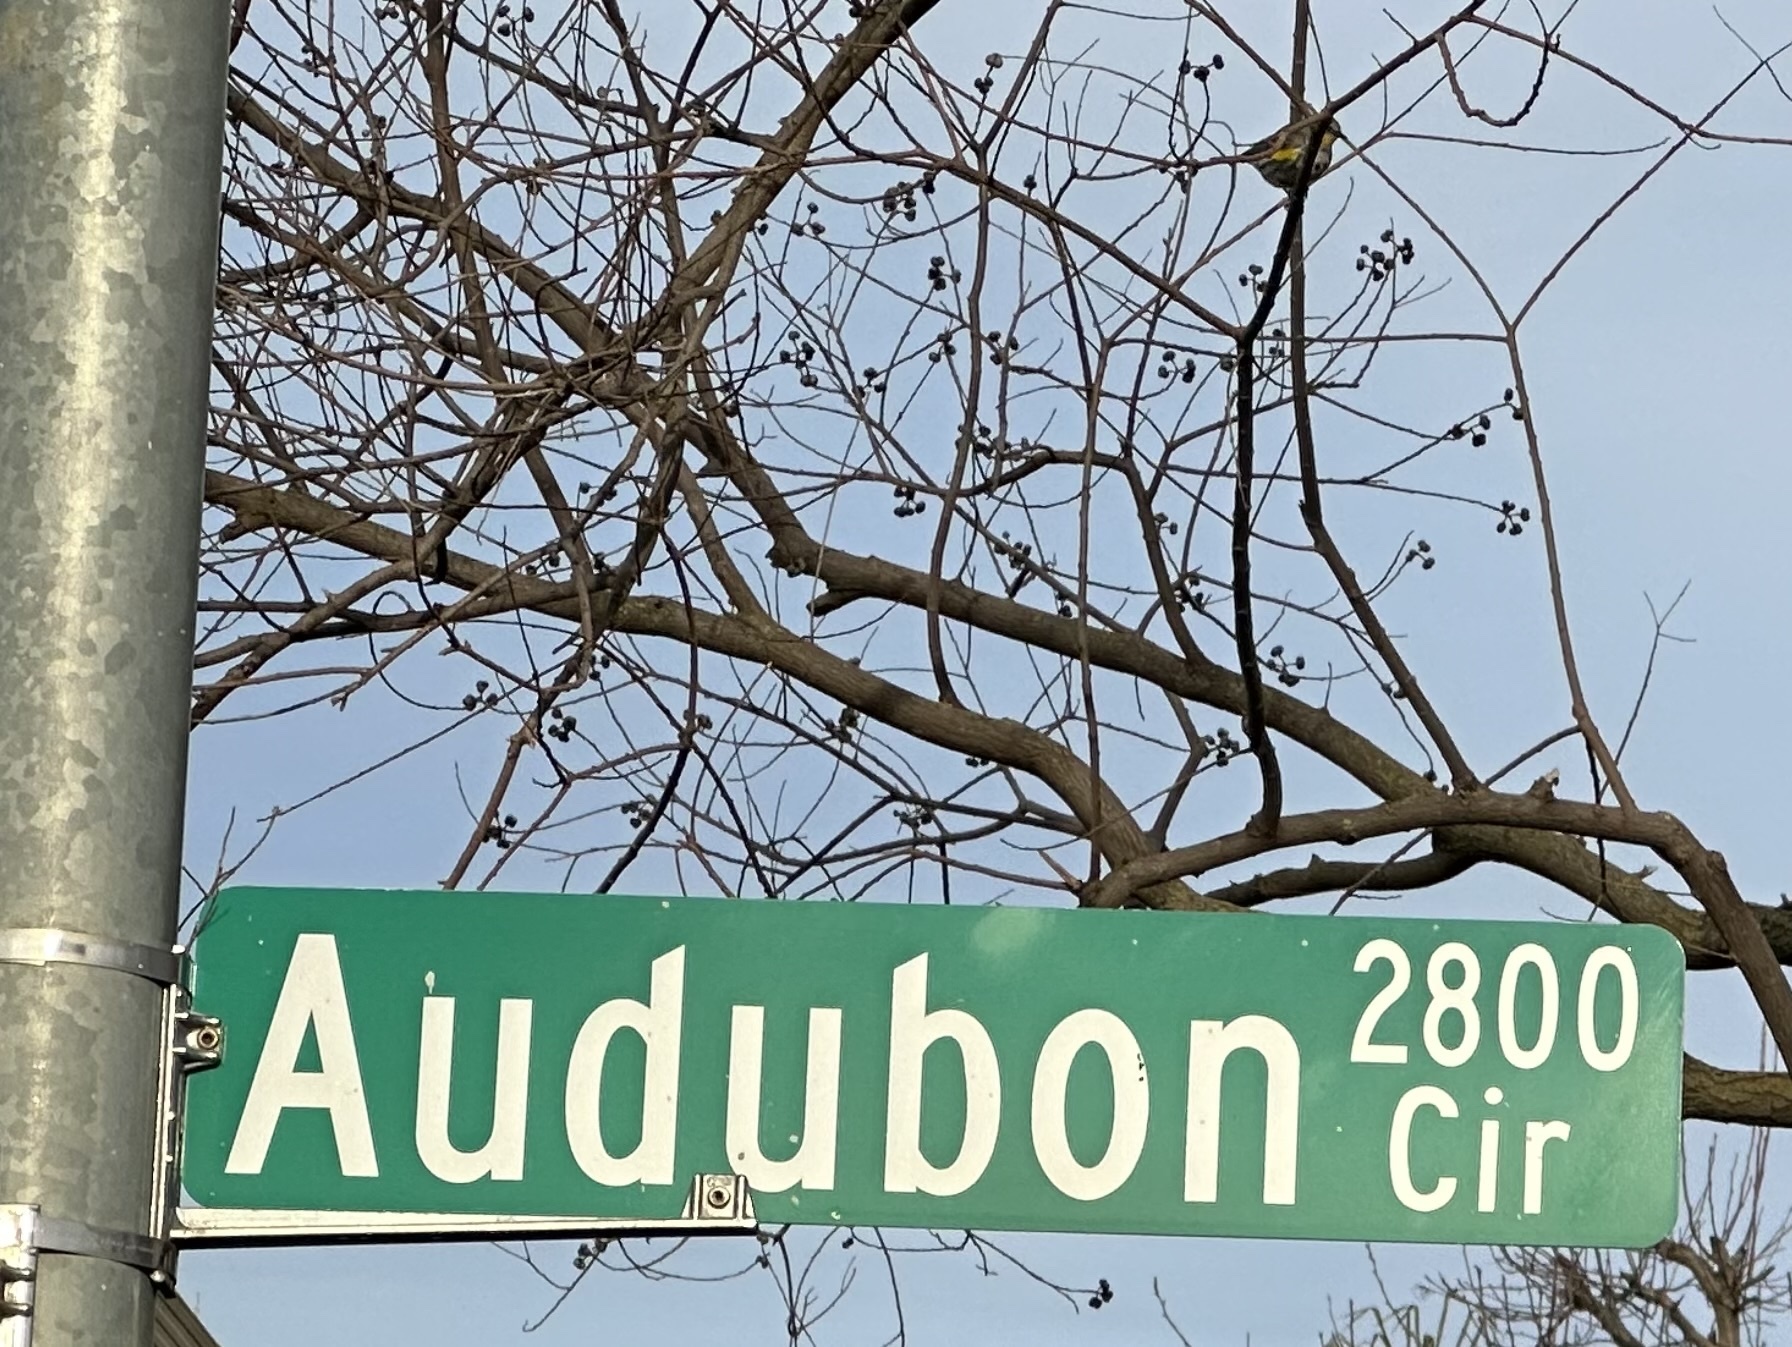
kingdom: Animalia
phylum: Chordata
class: Aves
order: Passeriformes
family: Parulidae
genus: Setophaga
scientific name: Setophaga auduboni
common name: Audubon's warbler
